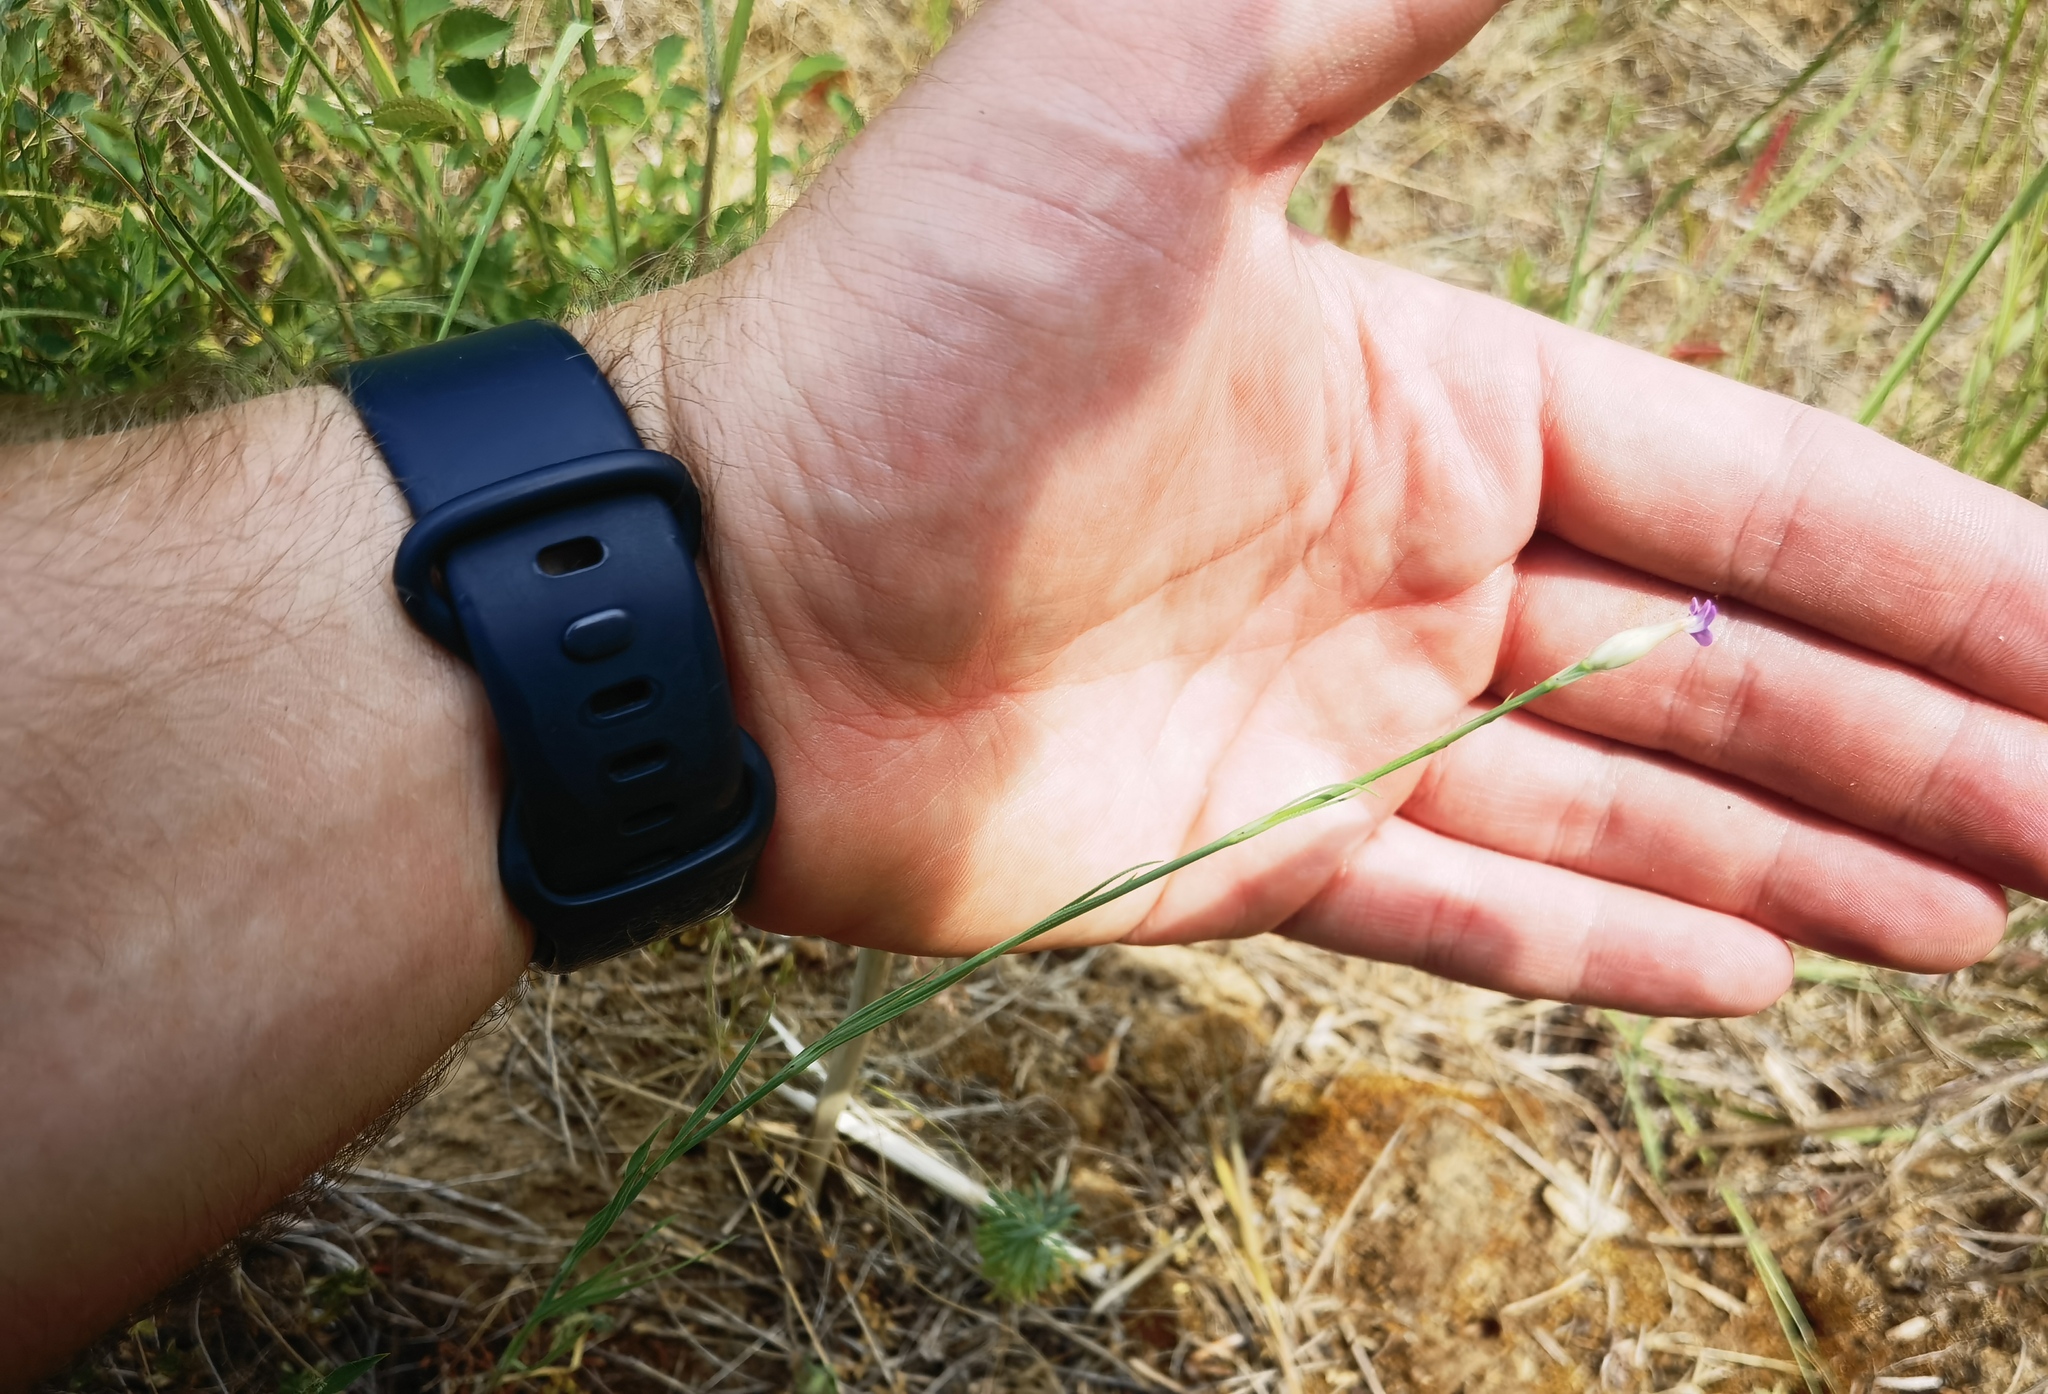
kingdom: Plantae
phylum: Tracheophyta
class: Magnoliopsida
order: Caryophyllales
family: Caryophyllaceae
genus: Petrorhagia
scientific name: Petrorhagia prolifera
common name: Proliferous pink
